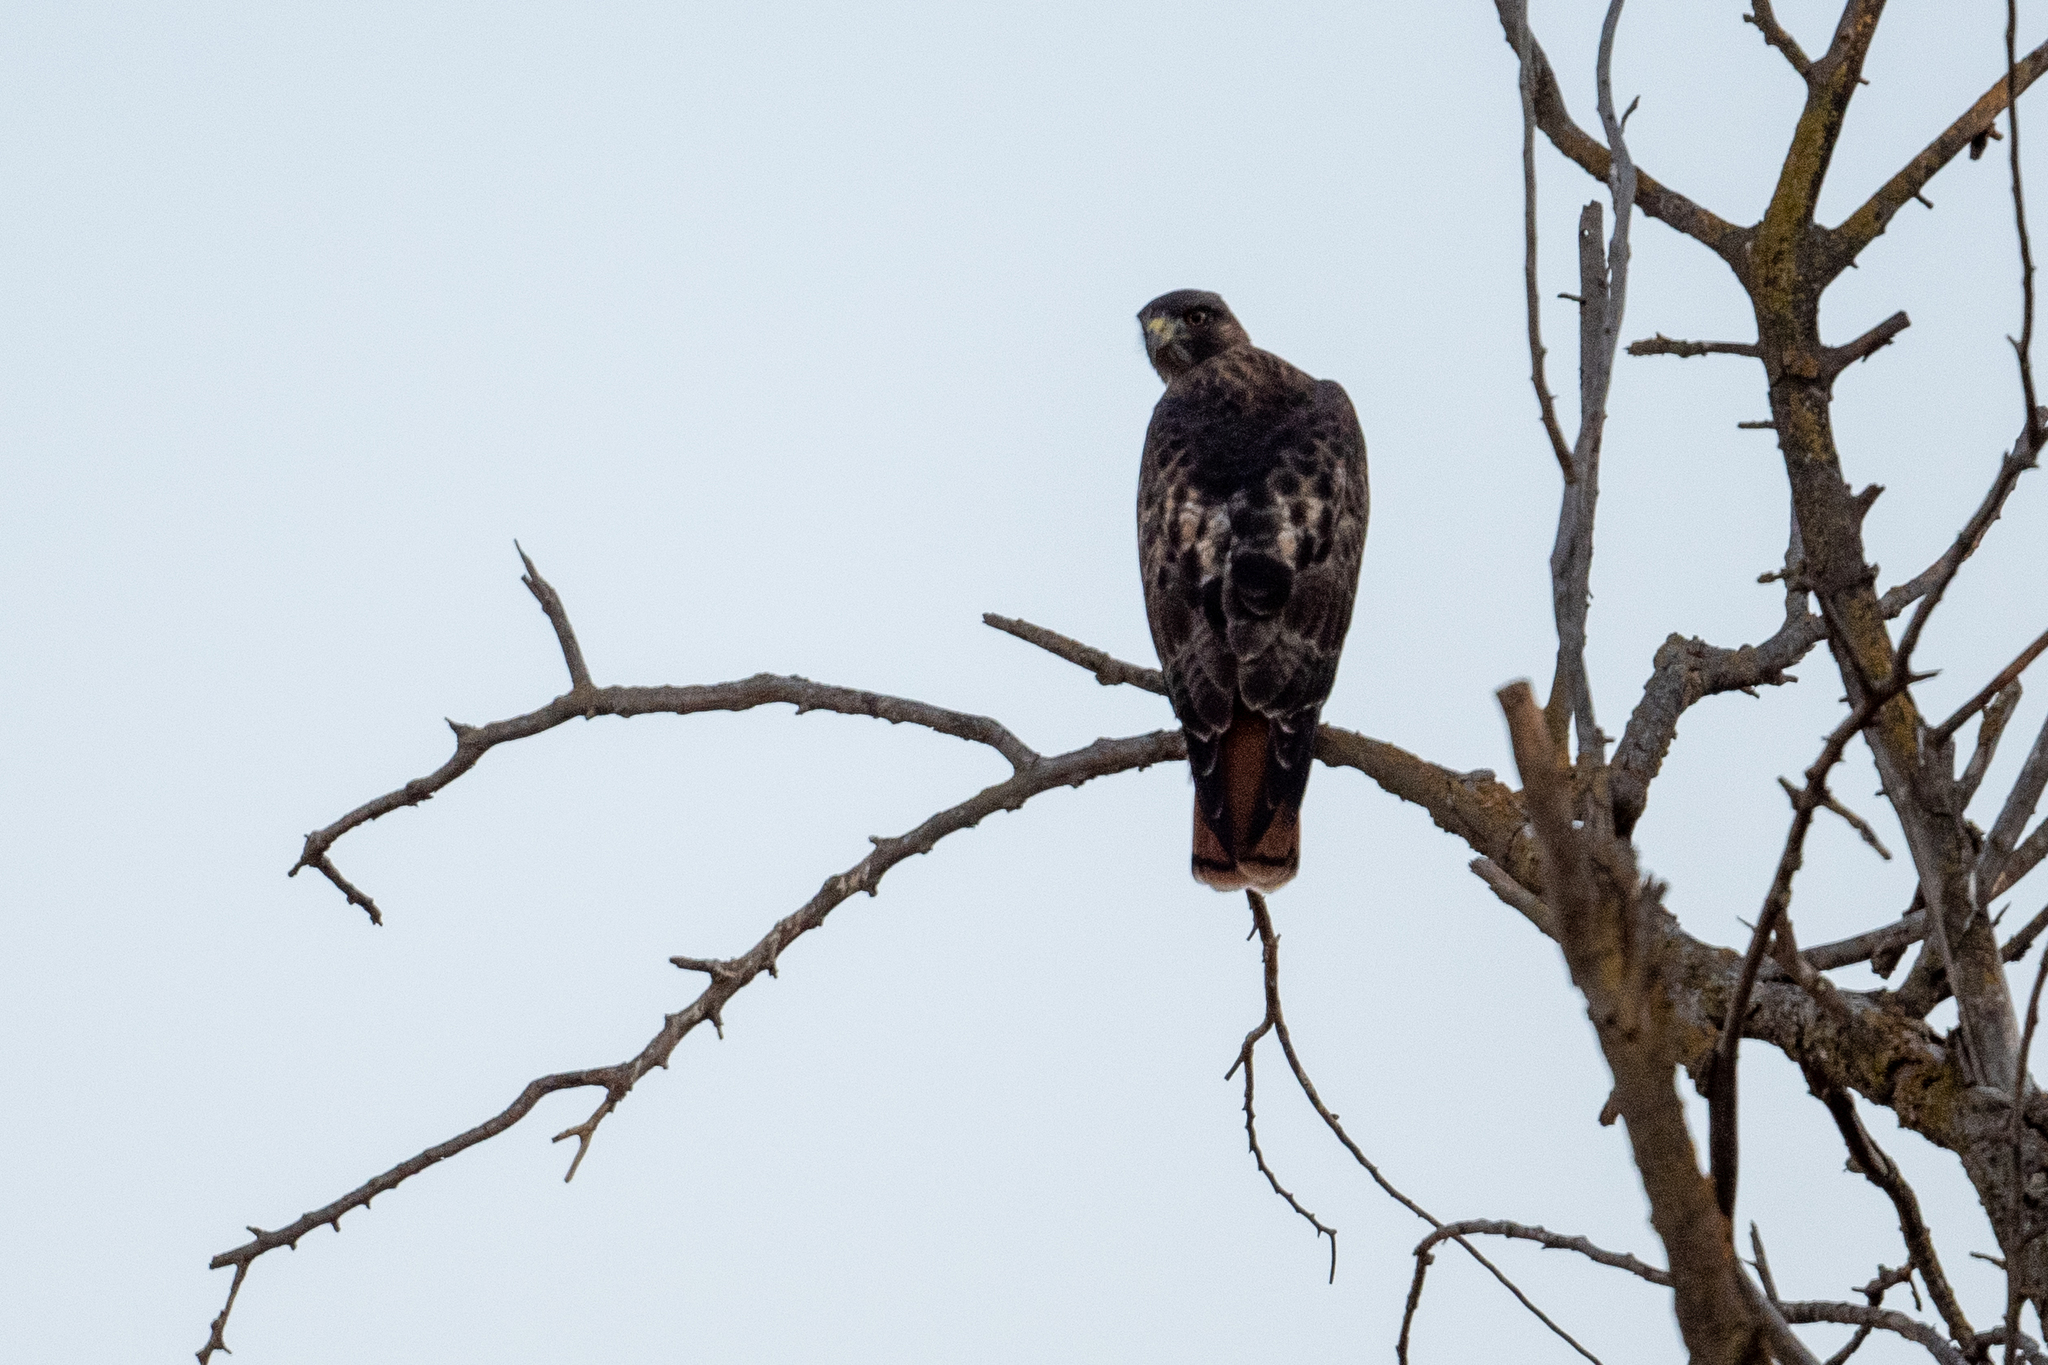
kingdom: Animalia
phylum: Chordata
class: Aves
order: Accipitriformes
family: Accipitridae
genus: Buteo
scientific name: Buteo jamaicensis
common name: Red-tailed hawk
